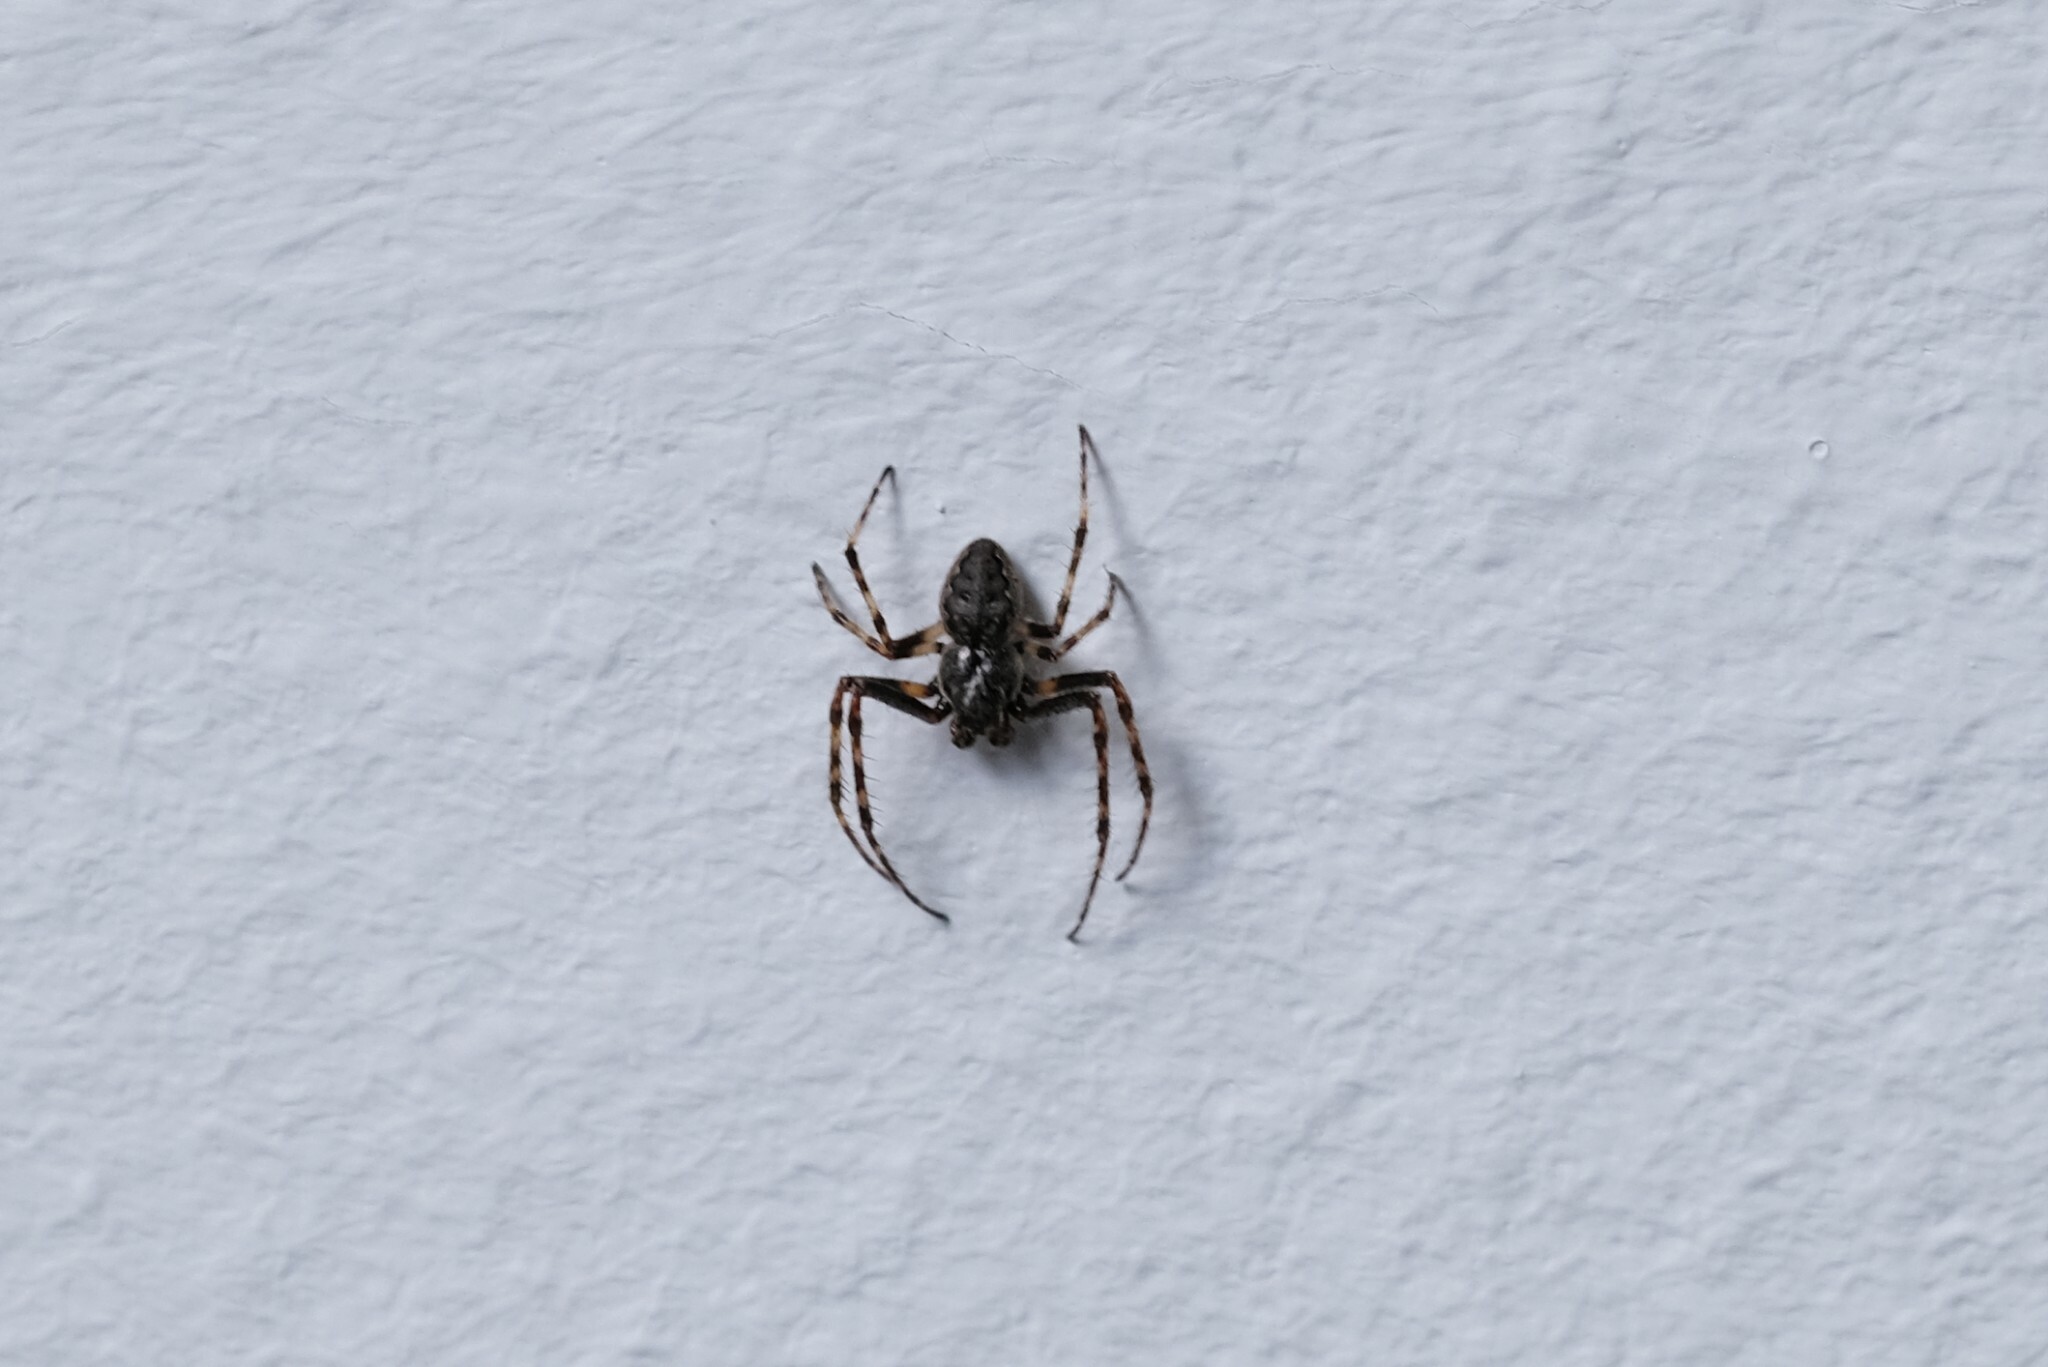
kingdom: Animalia
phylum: Arthropoda
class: Arachnida
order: Araneae
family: Araneidae
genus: Nuctenea
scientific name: Nuctenea umbratica
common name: Toad spider
